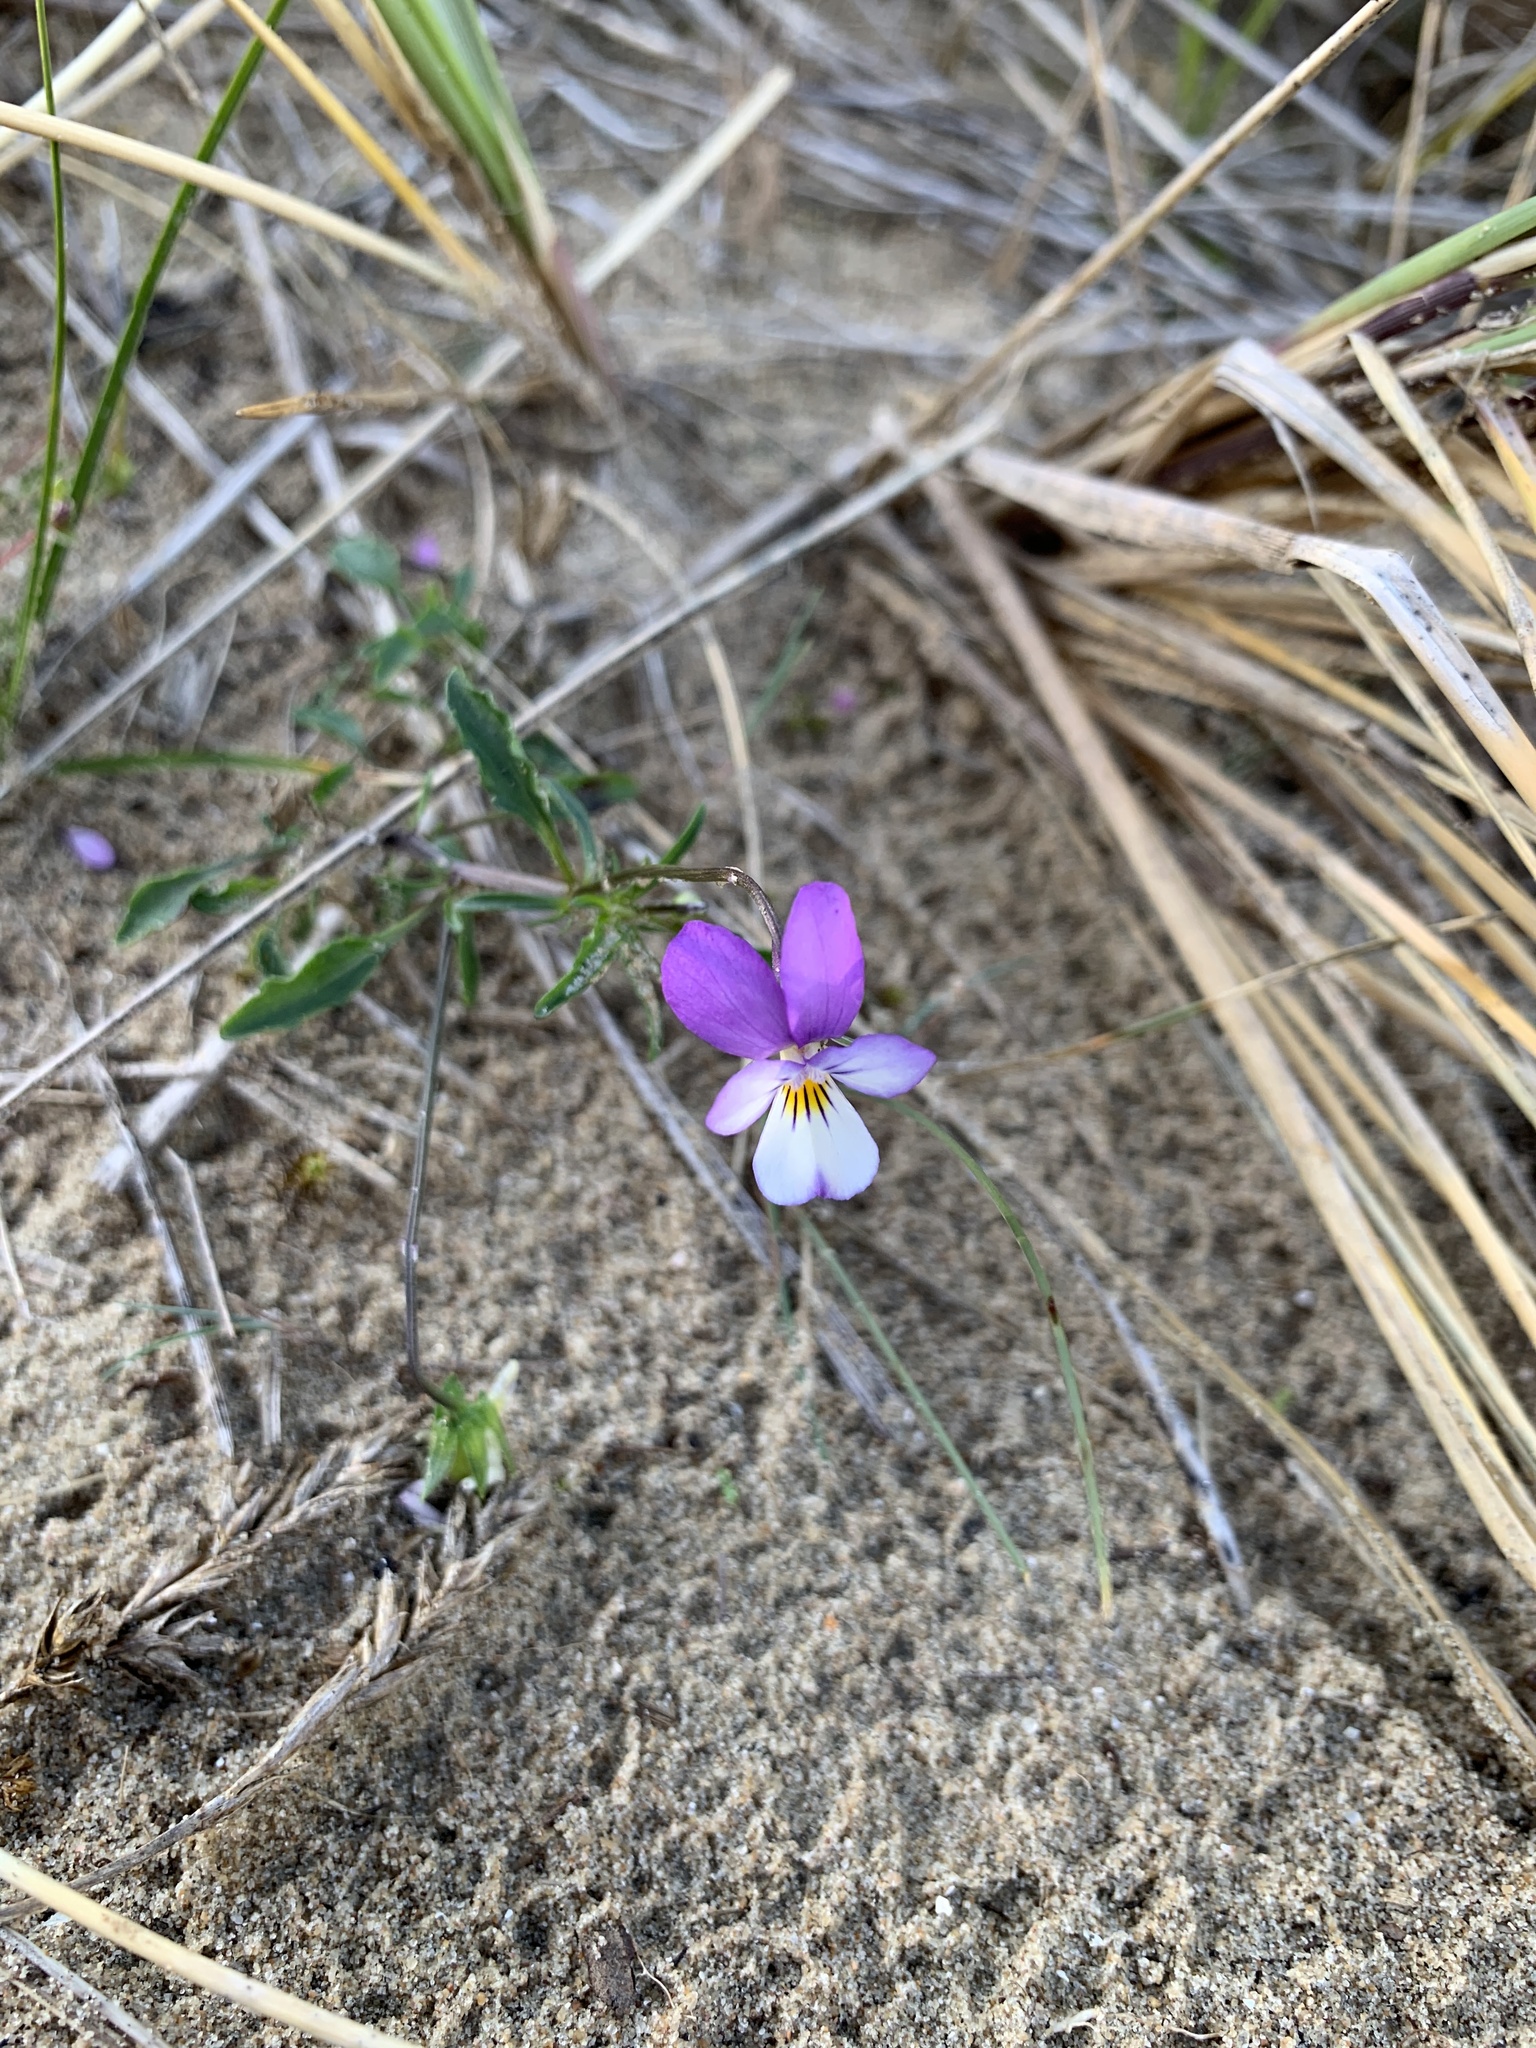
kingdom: Plantae
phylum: Tracheophyta
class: Magnoliopsida
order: Malpighiales
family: Violaceae
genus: Viola
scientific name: Viola tricolor
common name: Pansy
